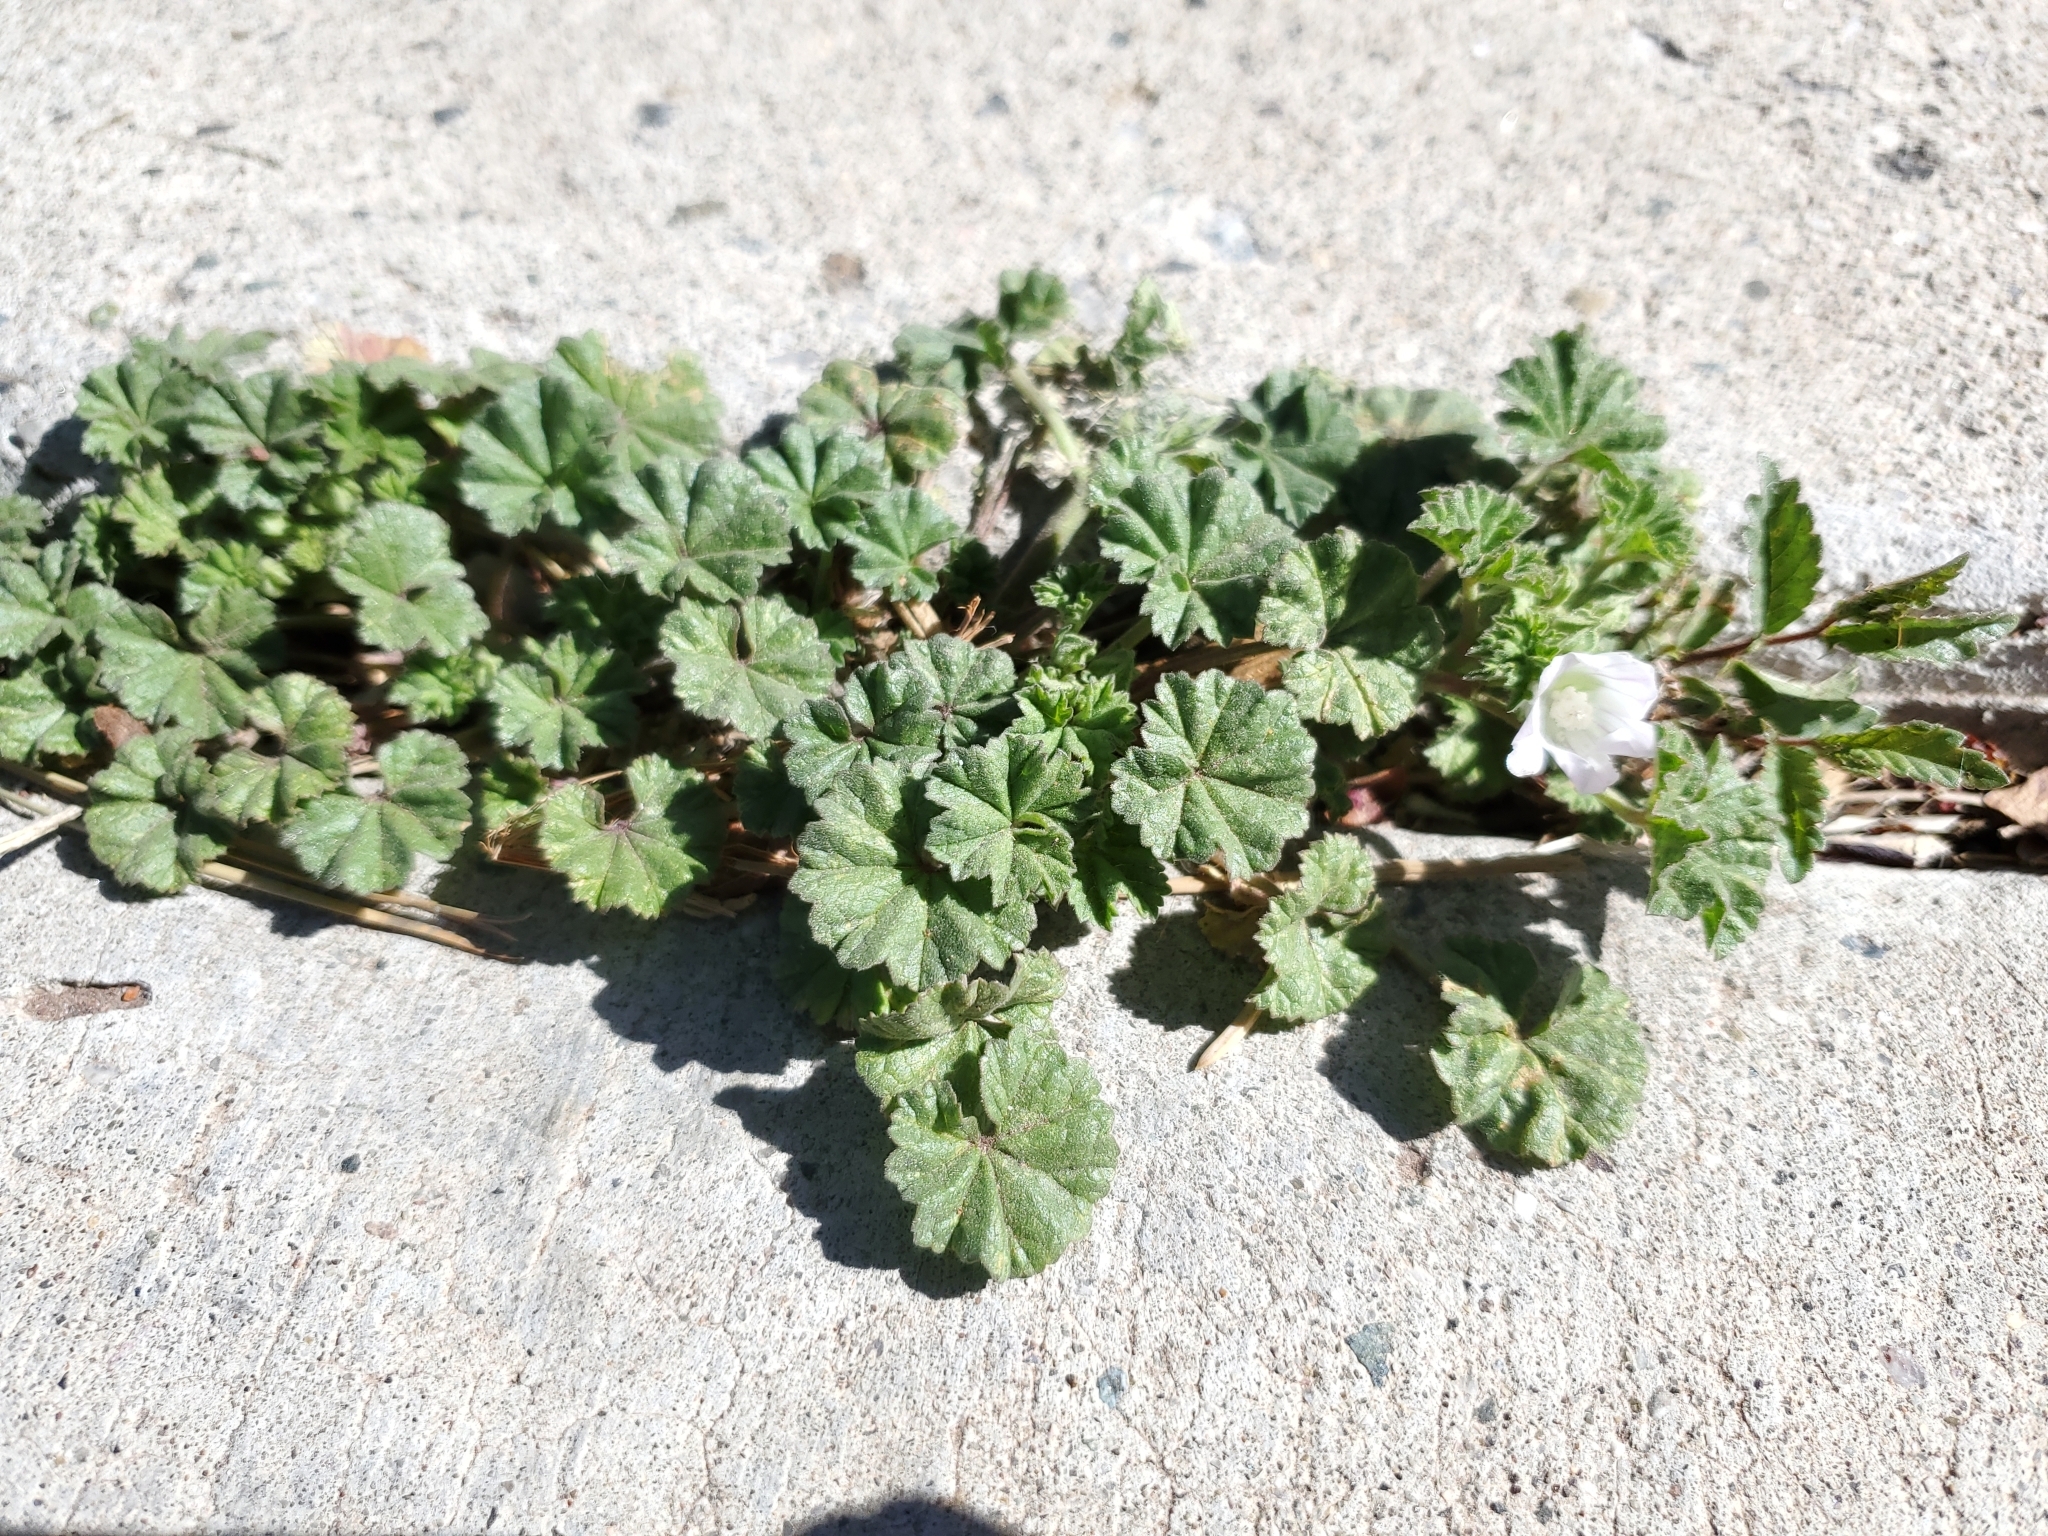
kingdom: Plantae
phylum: Tracheophyta
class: Magnoliopsida
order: Malvales
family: Malvaceae
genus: Malva
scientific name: Malva neglecta
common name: Common mallow
